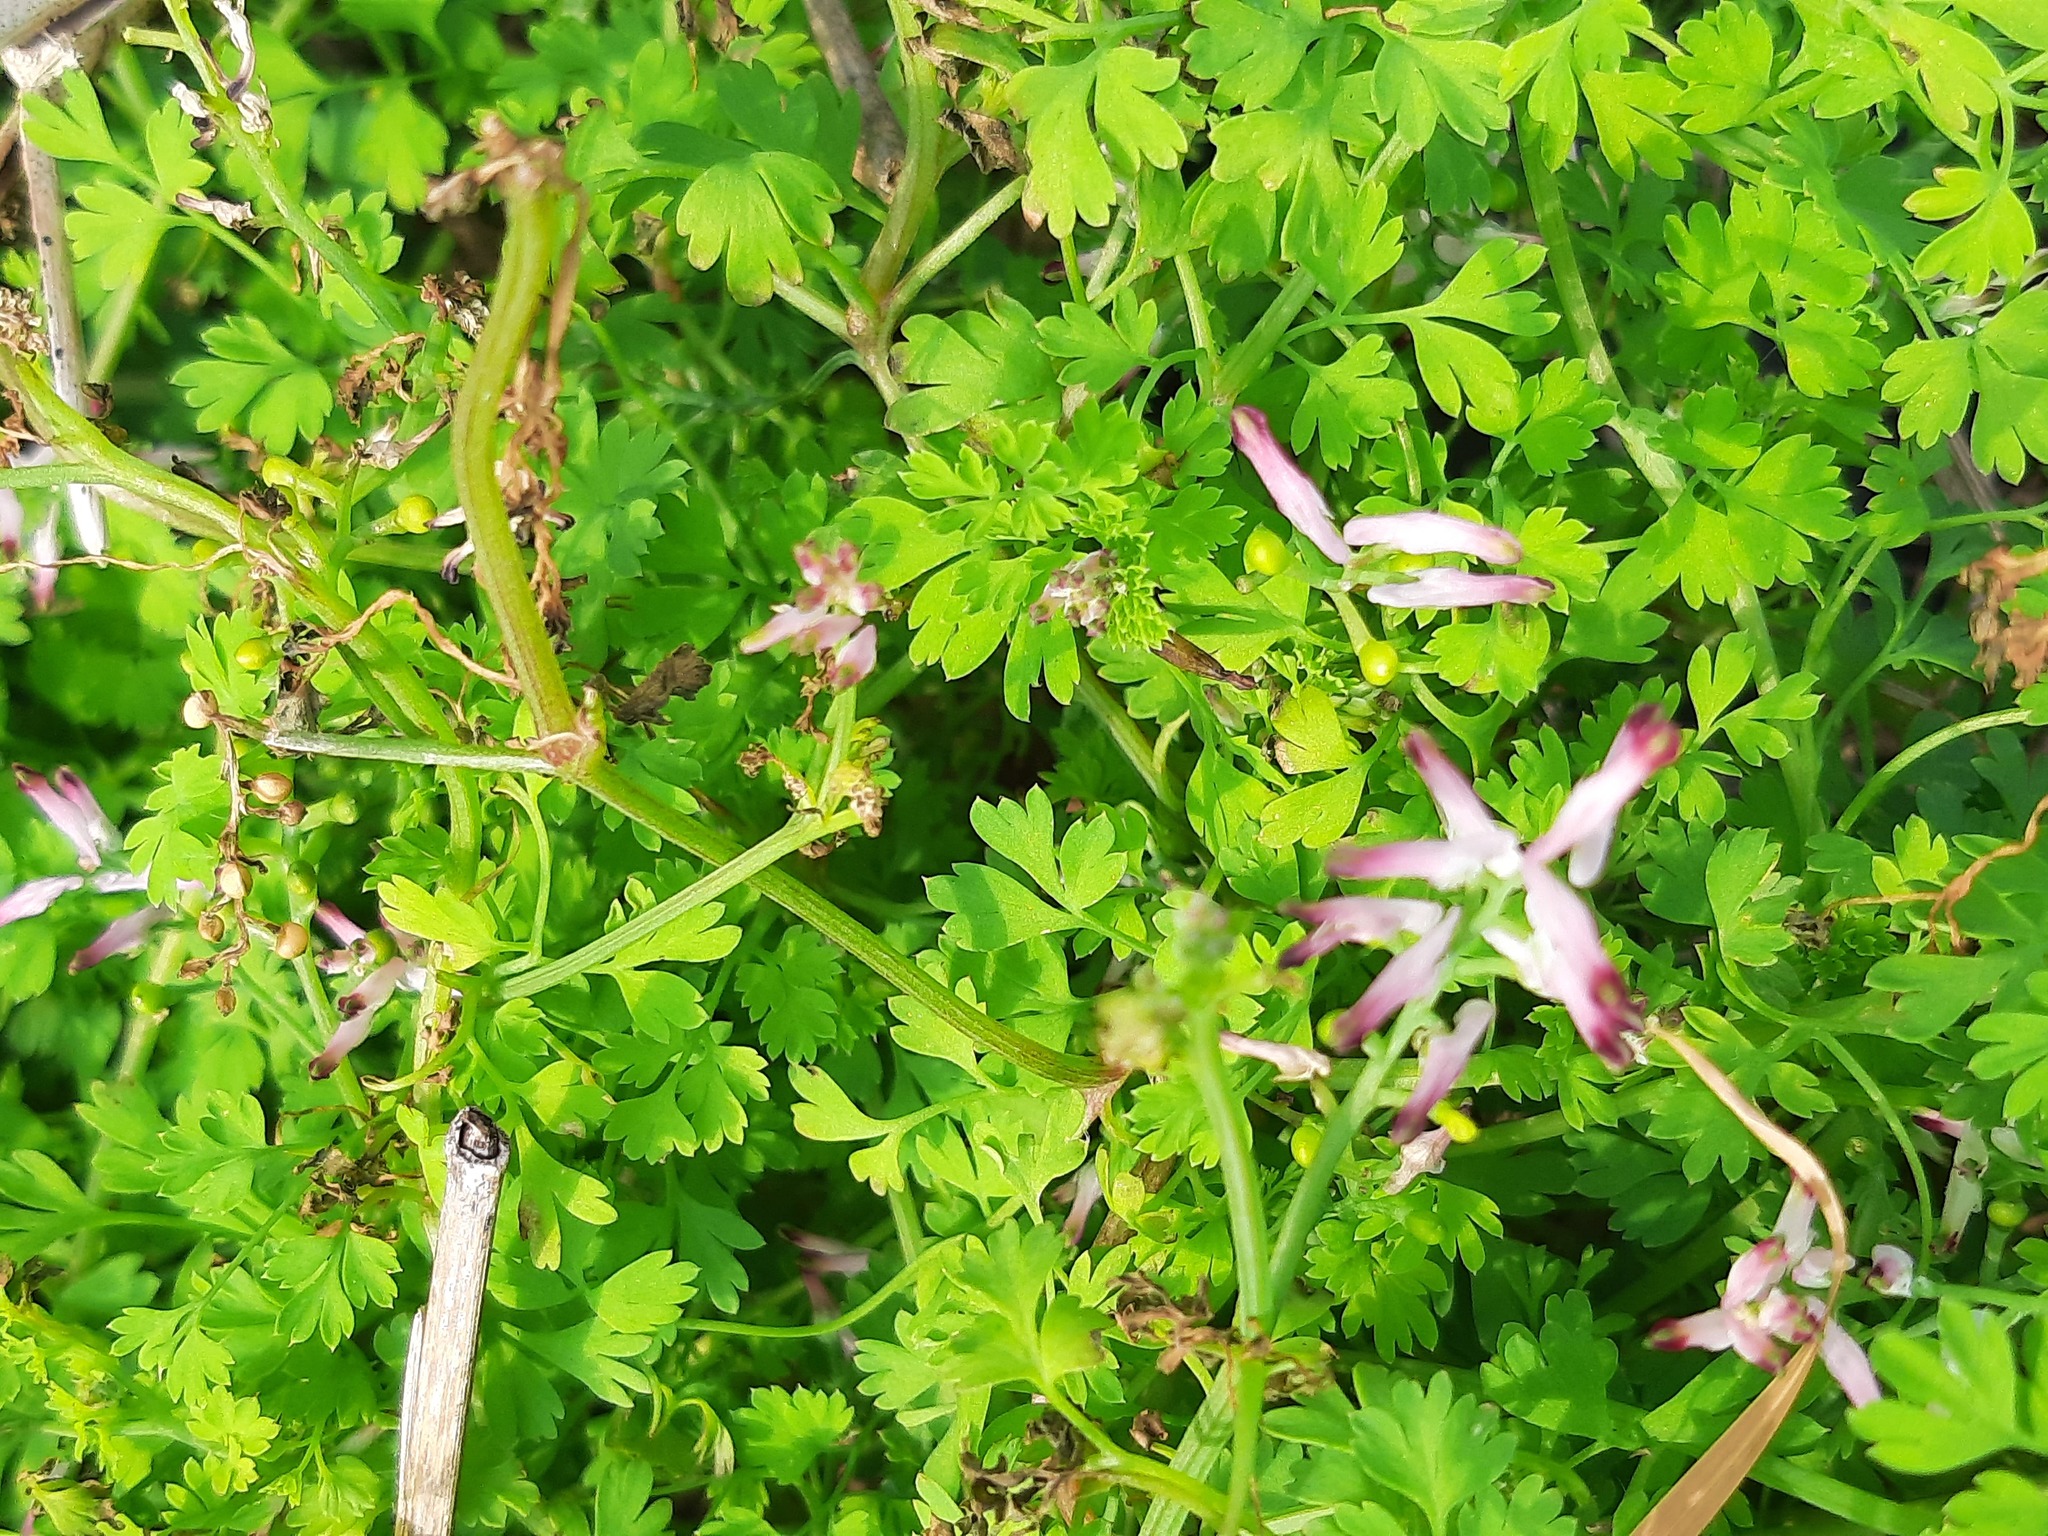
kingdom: Plantae
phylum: Tracheophyta
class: Magnoliopsida
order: Ranunculales
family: Papaveraceae
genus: Fumaria
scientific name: Fumaria muralis
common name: Common ramping-fumitory
